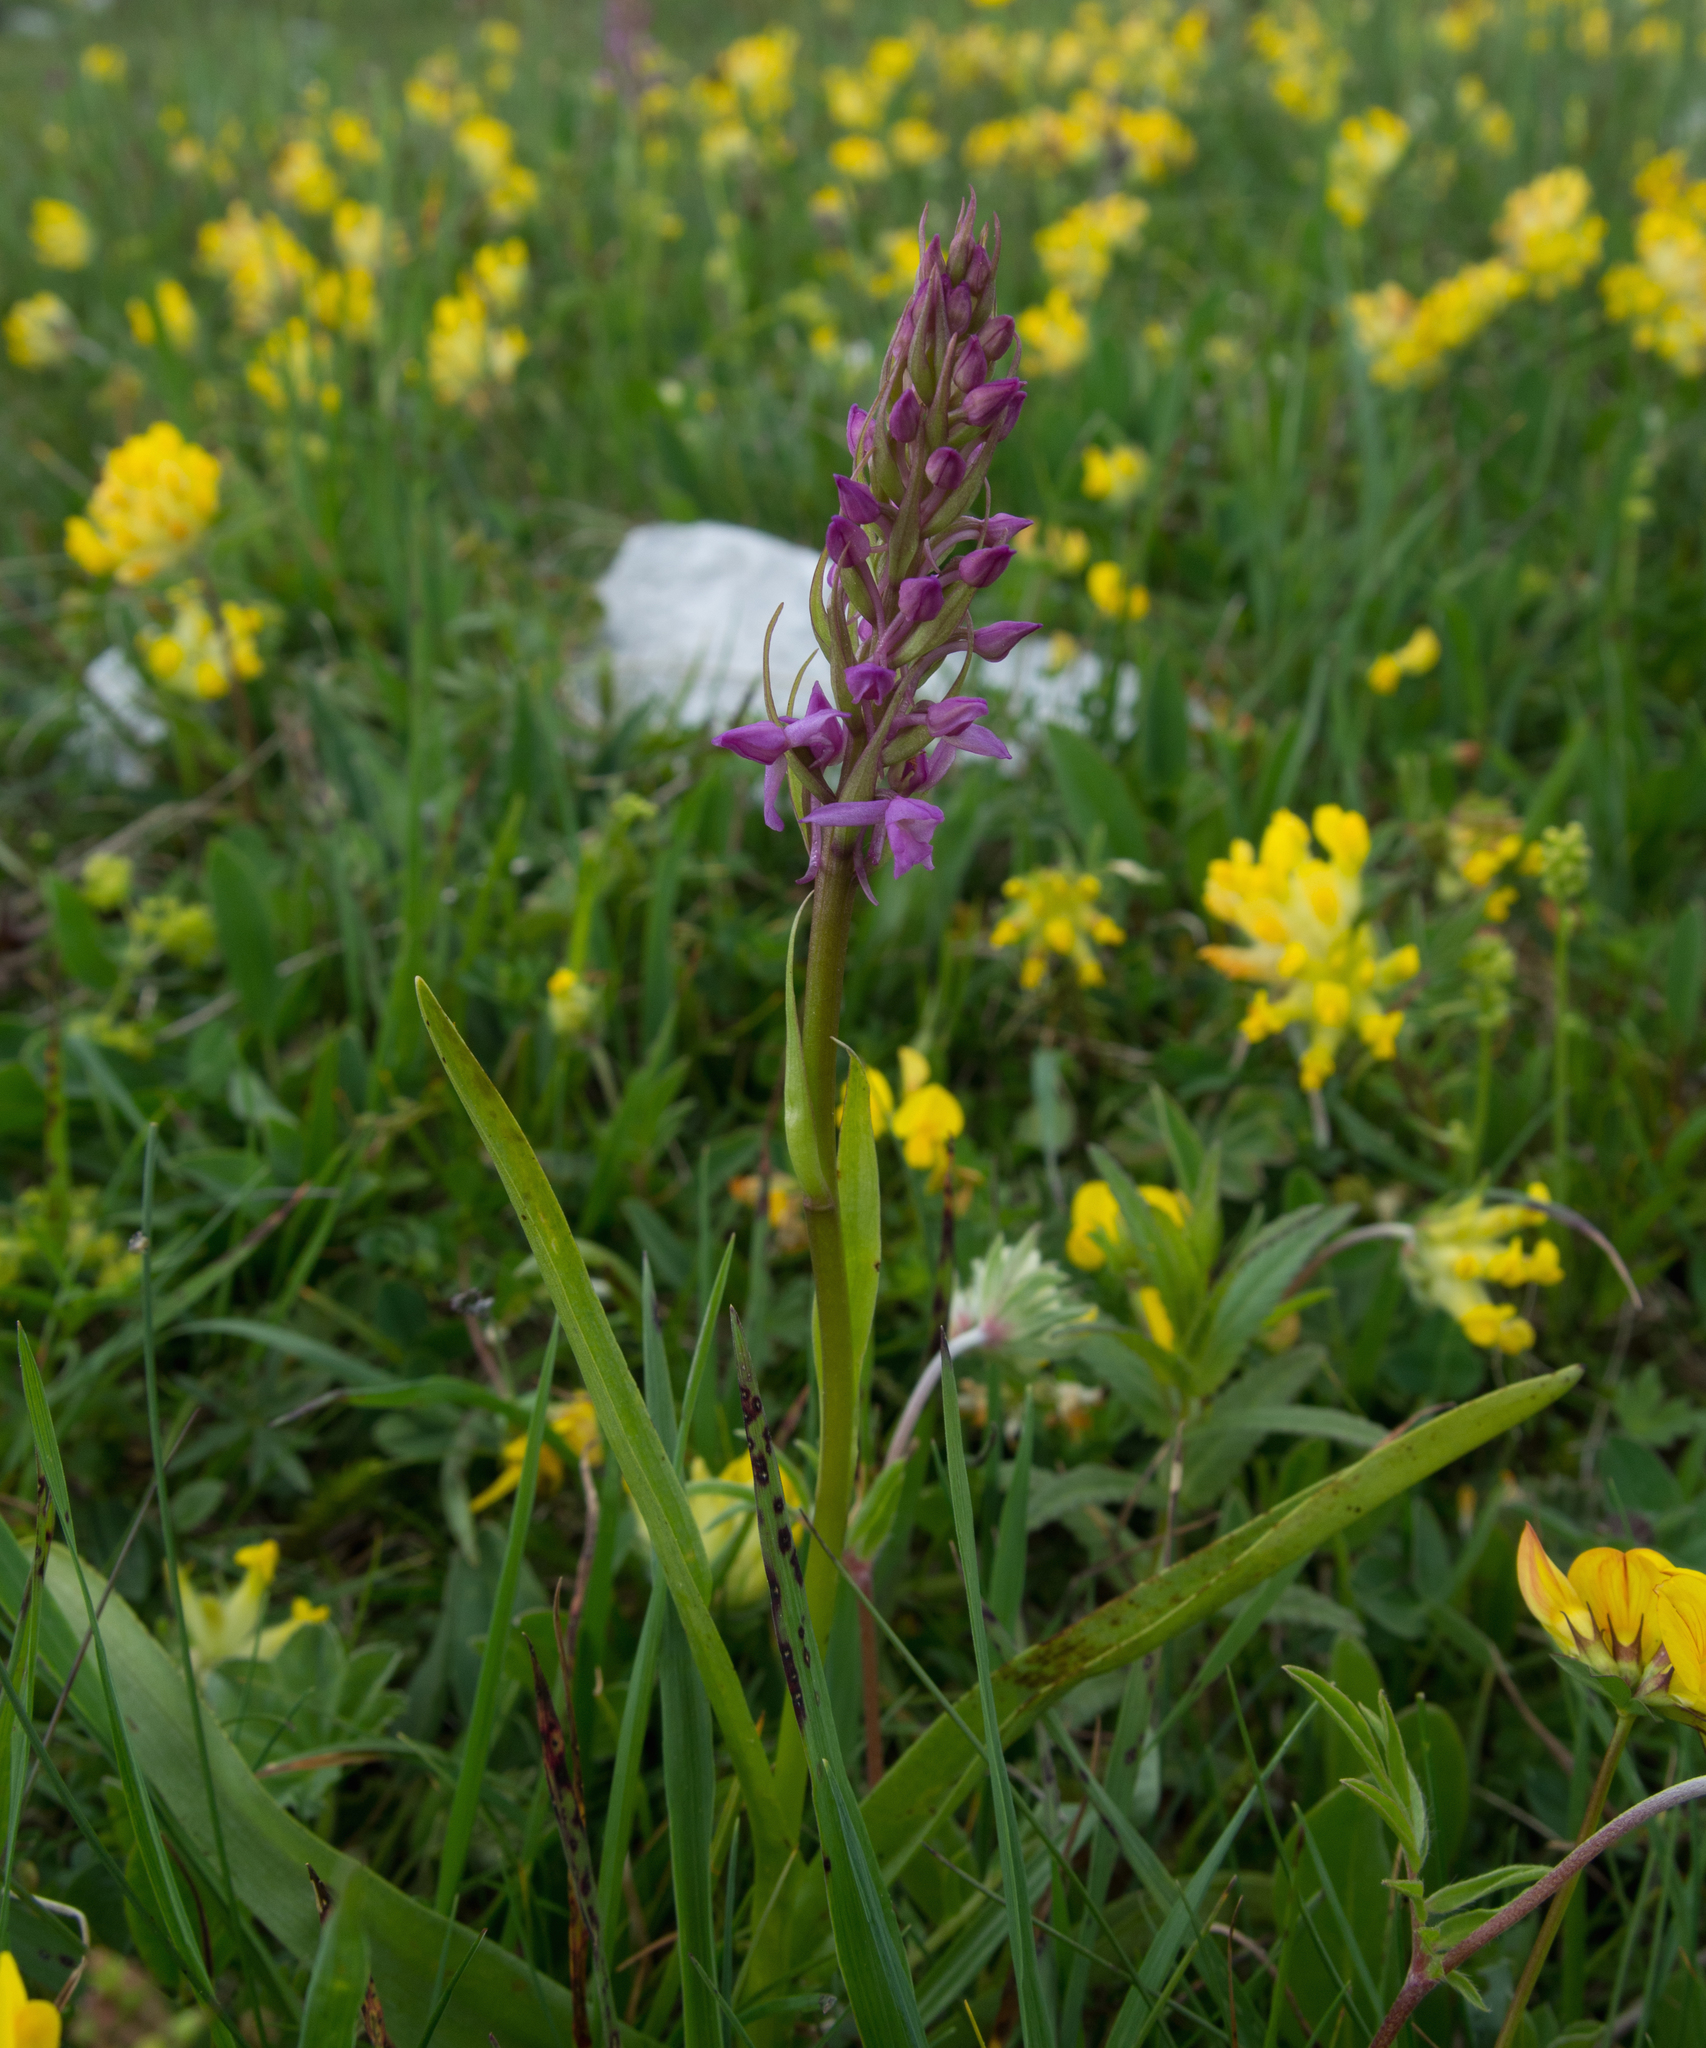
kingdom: Plantae
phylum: Tracheophyta
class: Liliopsida
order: Asparagales
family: Orchidaceae
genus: Gymnadenia
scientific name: Gymnadenia conopsea
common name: Fragrant orchid
